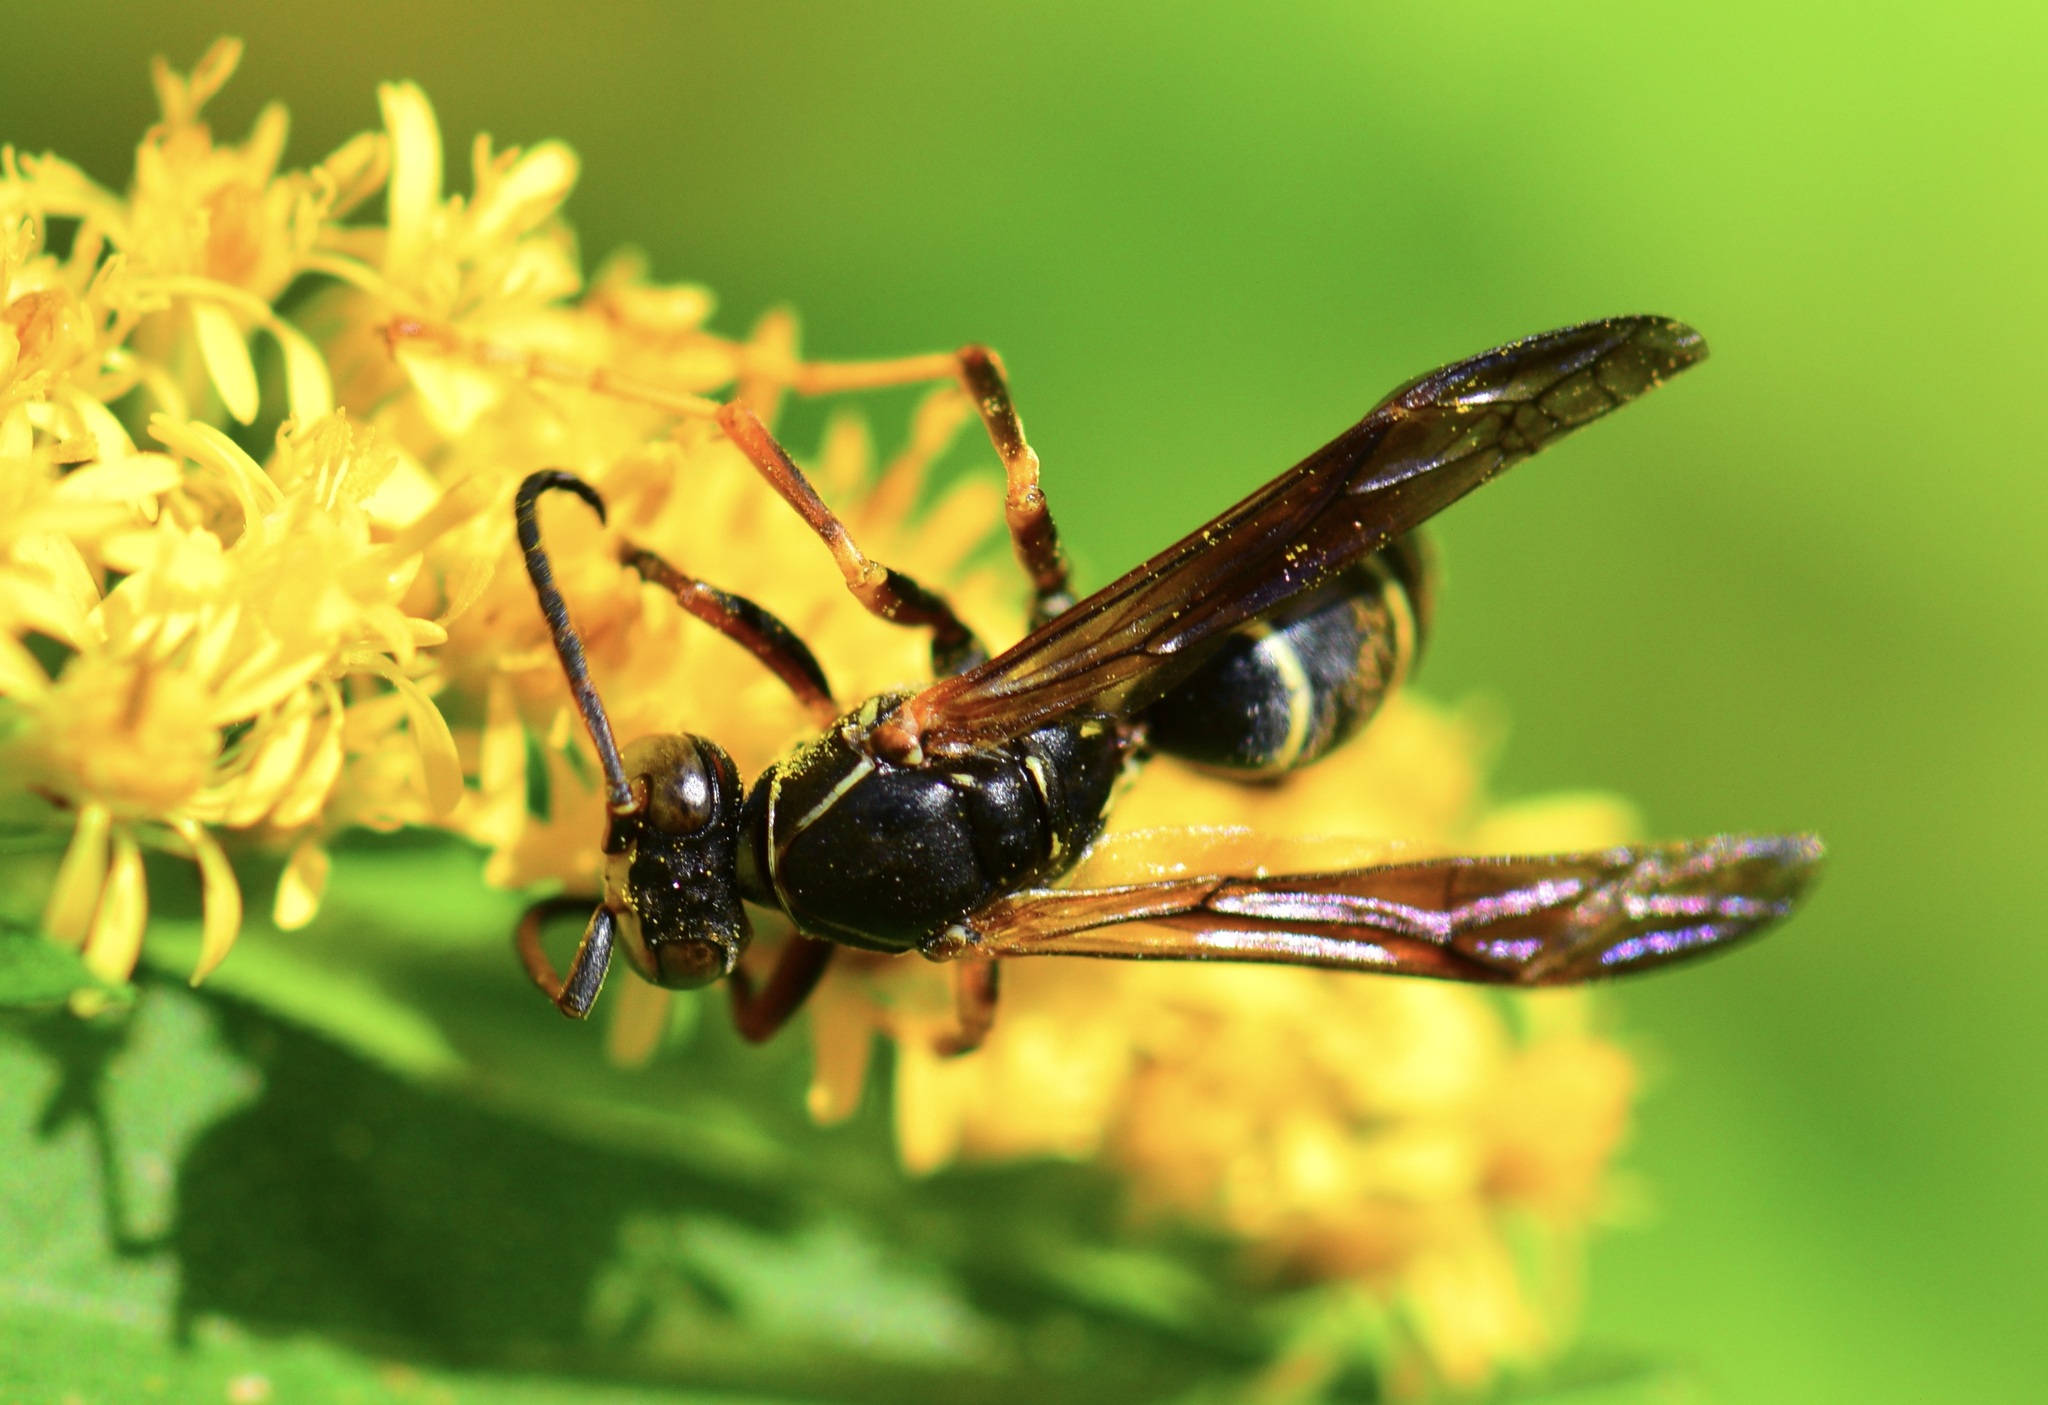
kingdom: Animalia
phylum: Arthropoda
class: Insecta
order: Hymenoptera
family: Eumenidae
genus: Polistes
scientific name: Polistes fuscatus
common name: Dark paper wasp
